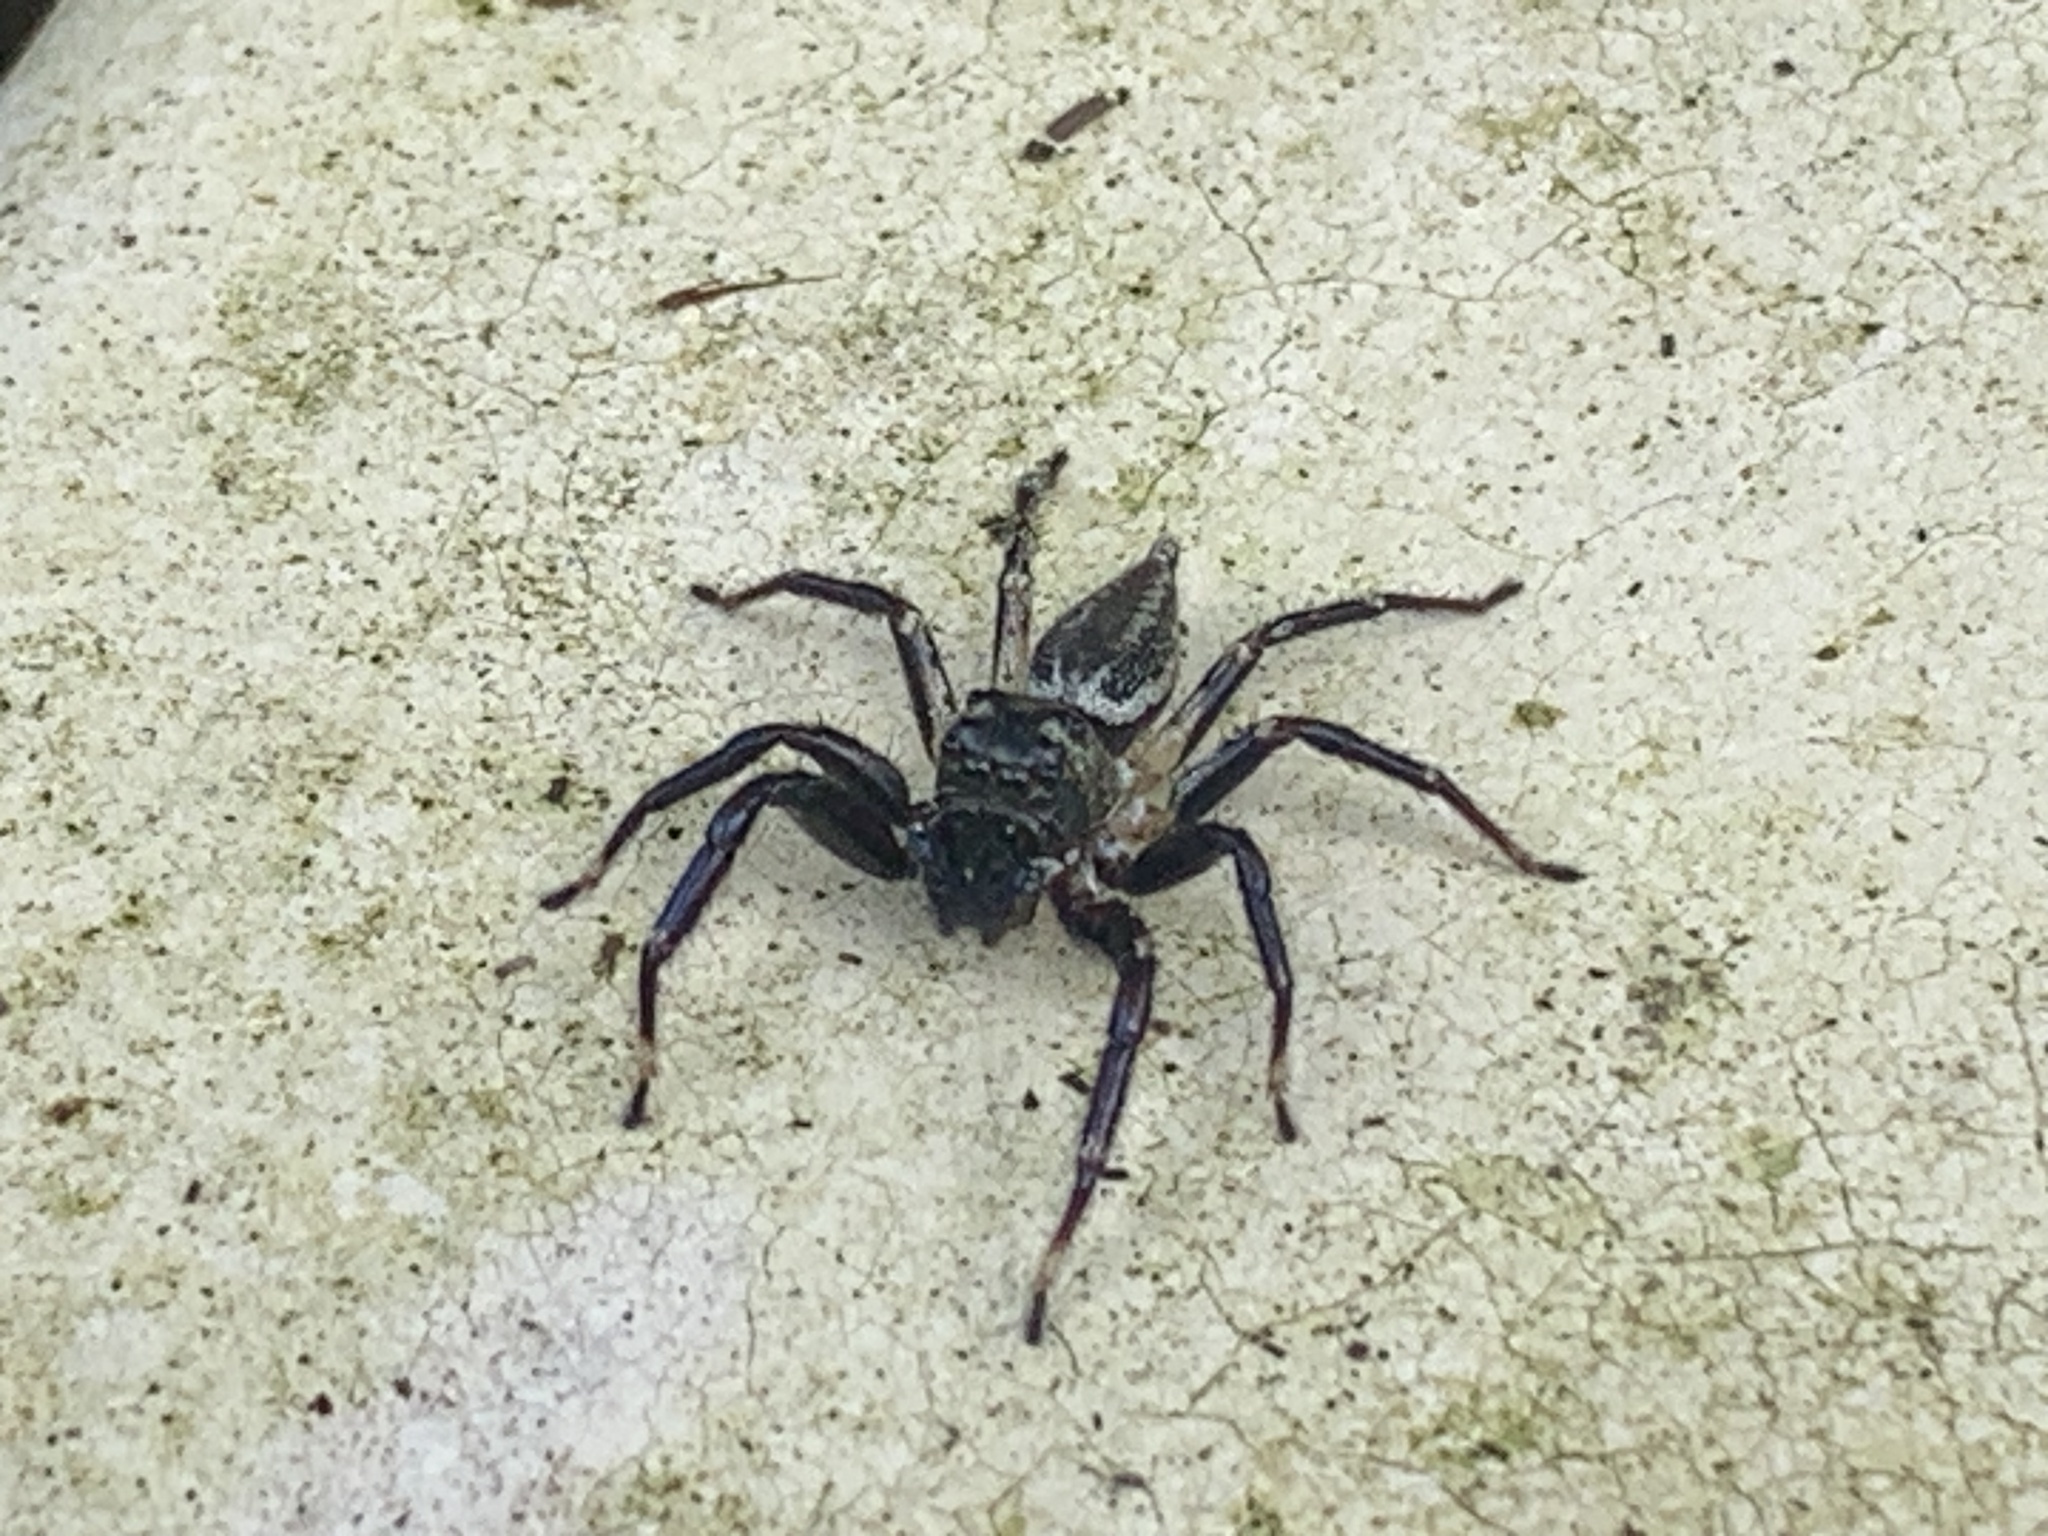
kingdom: Animalia
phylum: Arthropoda
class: Arachnida
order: Araneae
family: Salticidae
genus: Zenodorus
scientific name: Zenodorus swiftorum
